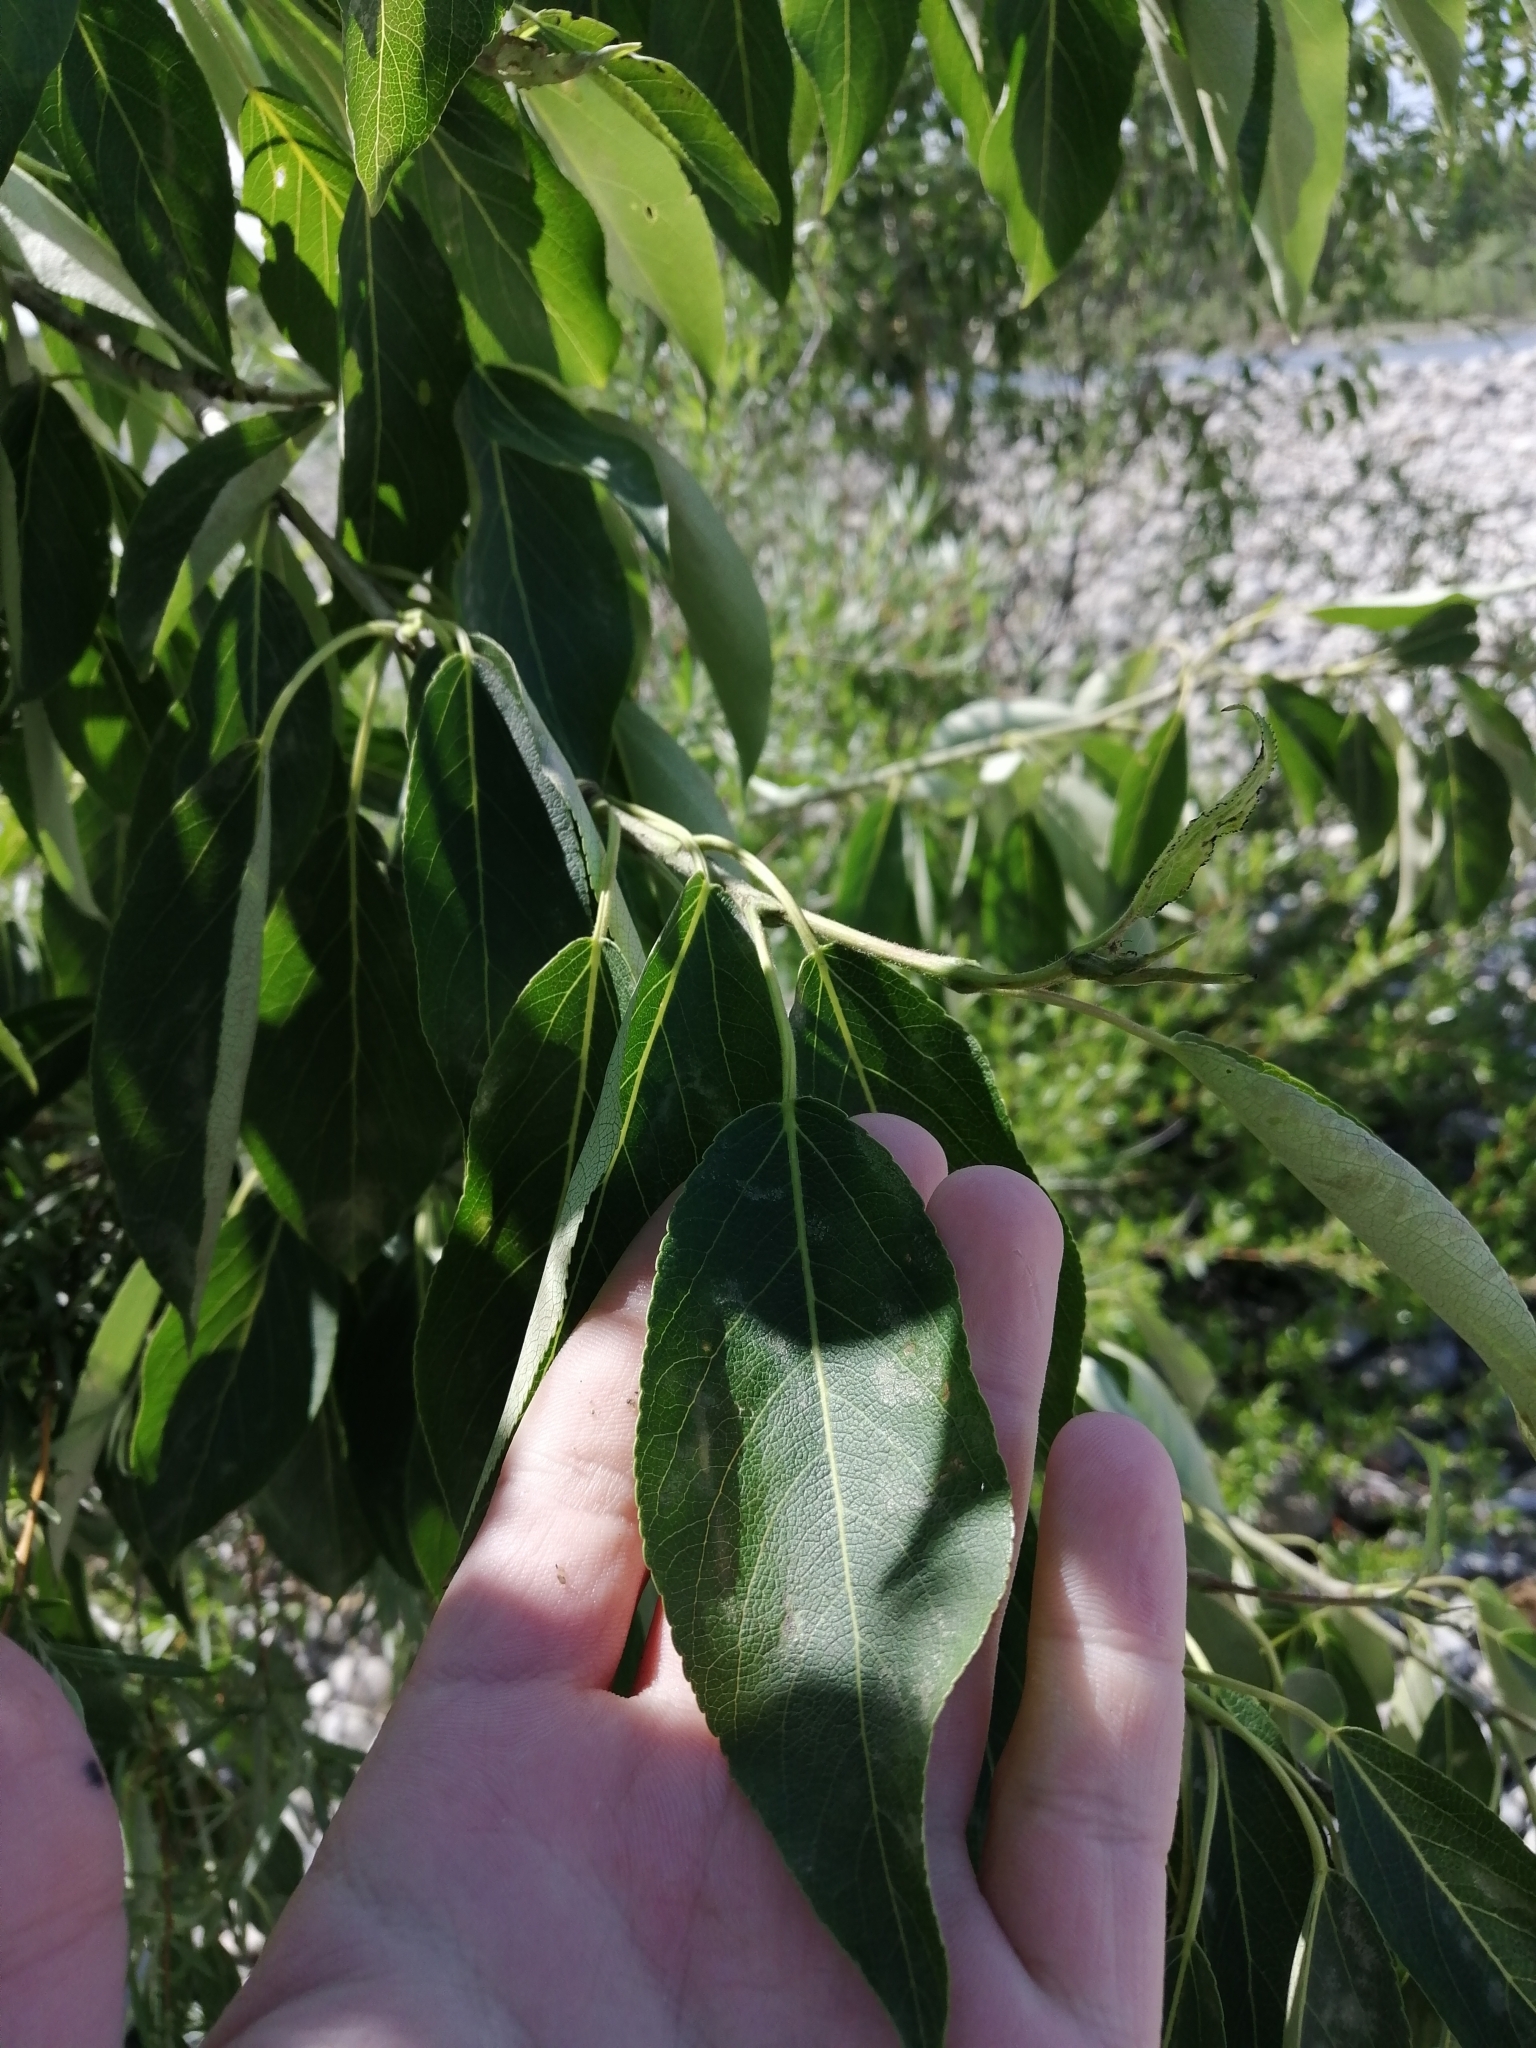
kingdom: Plantae
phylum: Tracheophyta
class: Magnoliopsida
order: Malpighiales
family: Salicaceae
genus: Salix
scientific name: Salix gmelinii
